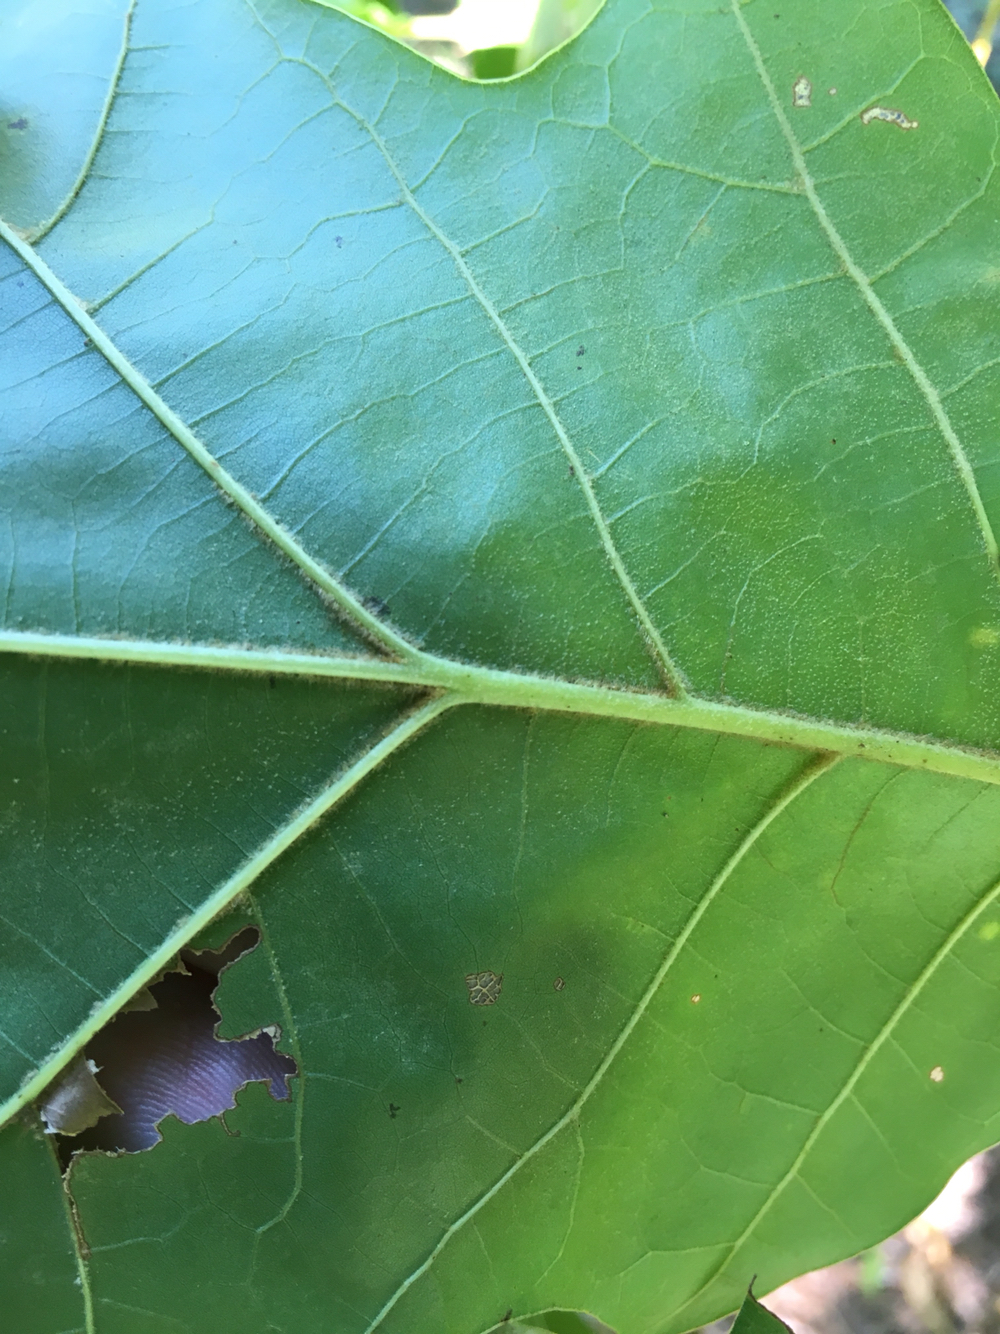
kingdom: Plantae
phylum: Tracheophyta
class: Magnoliopsida
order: Fagales
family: Fagaceae
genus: Quercus
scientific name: Quercus velutina
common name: Black oak
